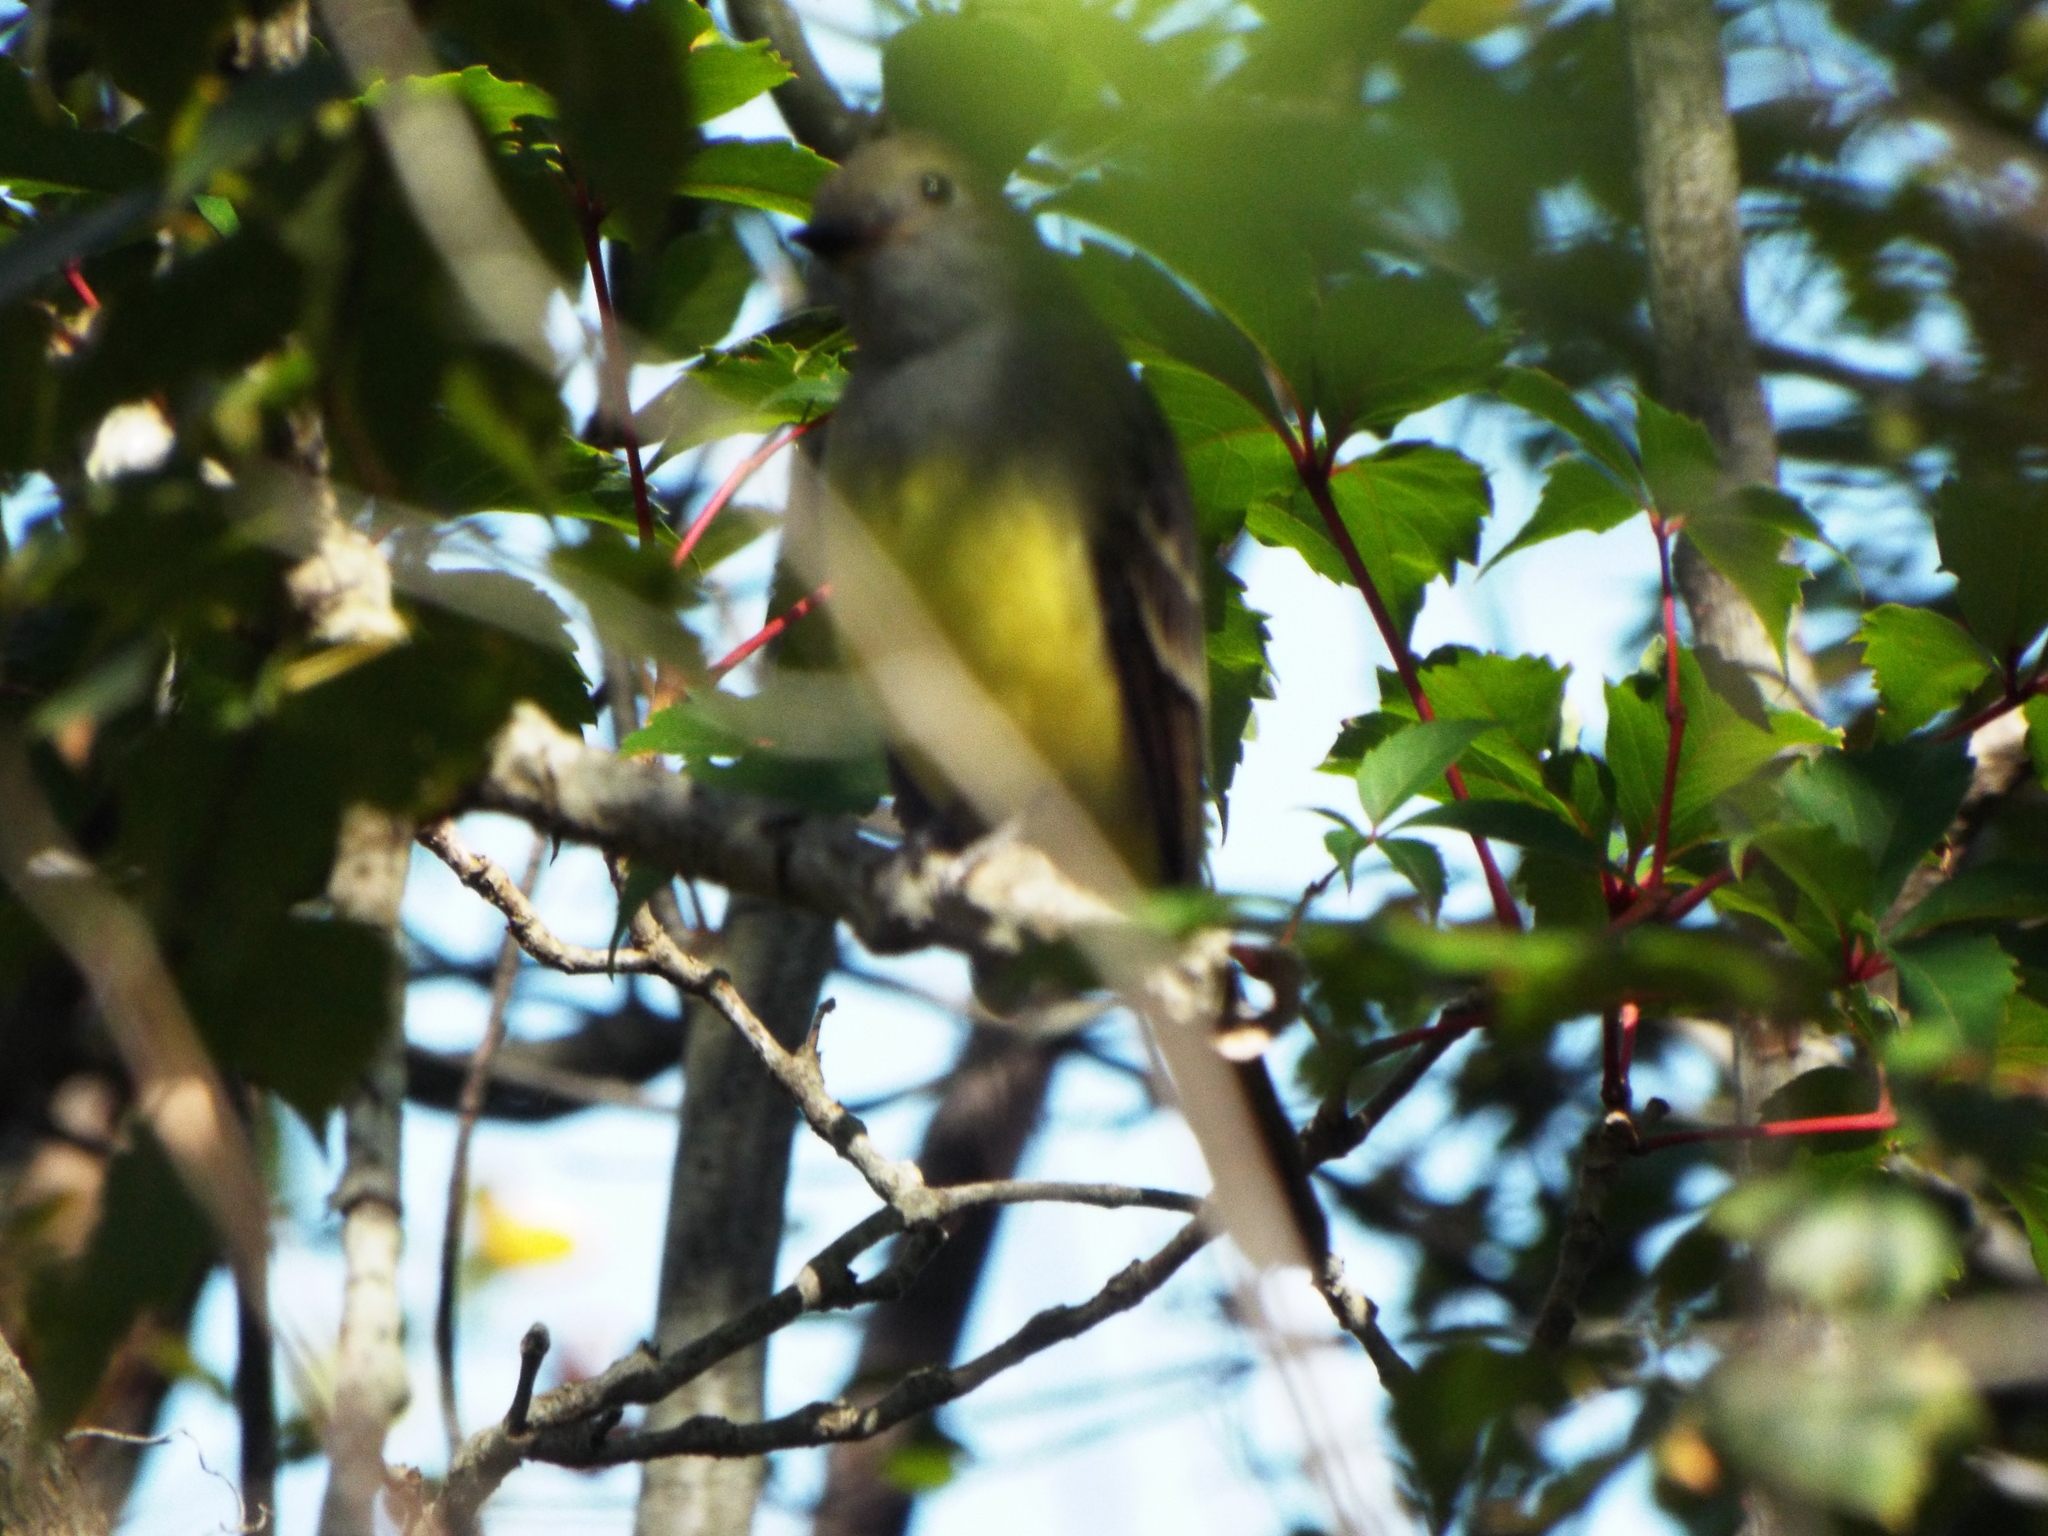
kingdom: Animalia
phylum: Chordata
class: Aves
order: Passeriformes
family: Tyrannidae
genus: Myiarchus
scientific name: Myiarchus crinitus
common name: Great crested flycatcher
